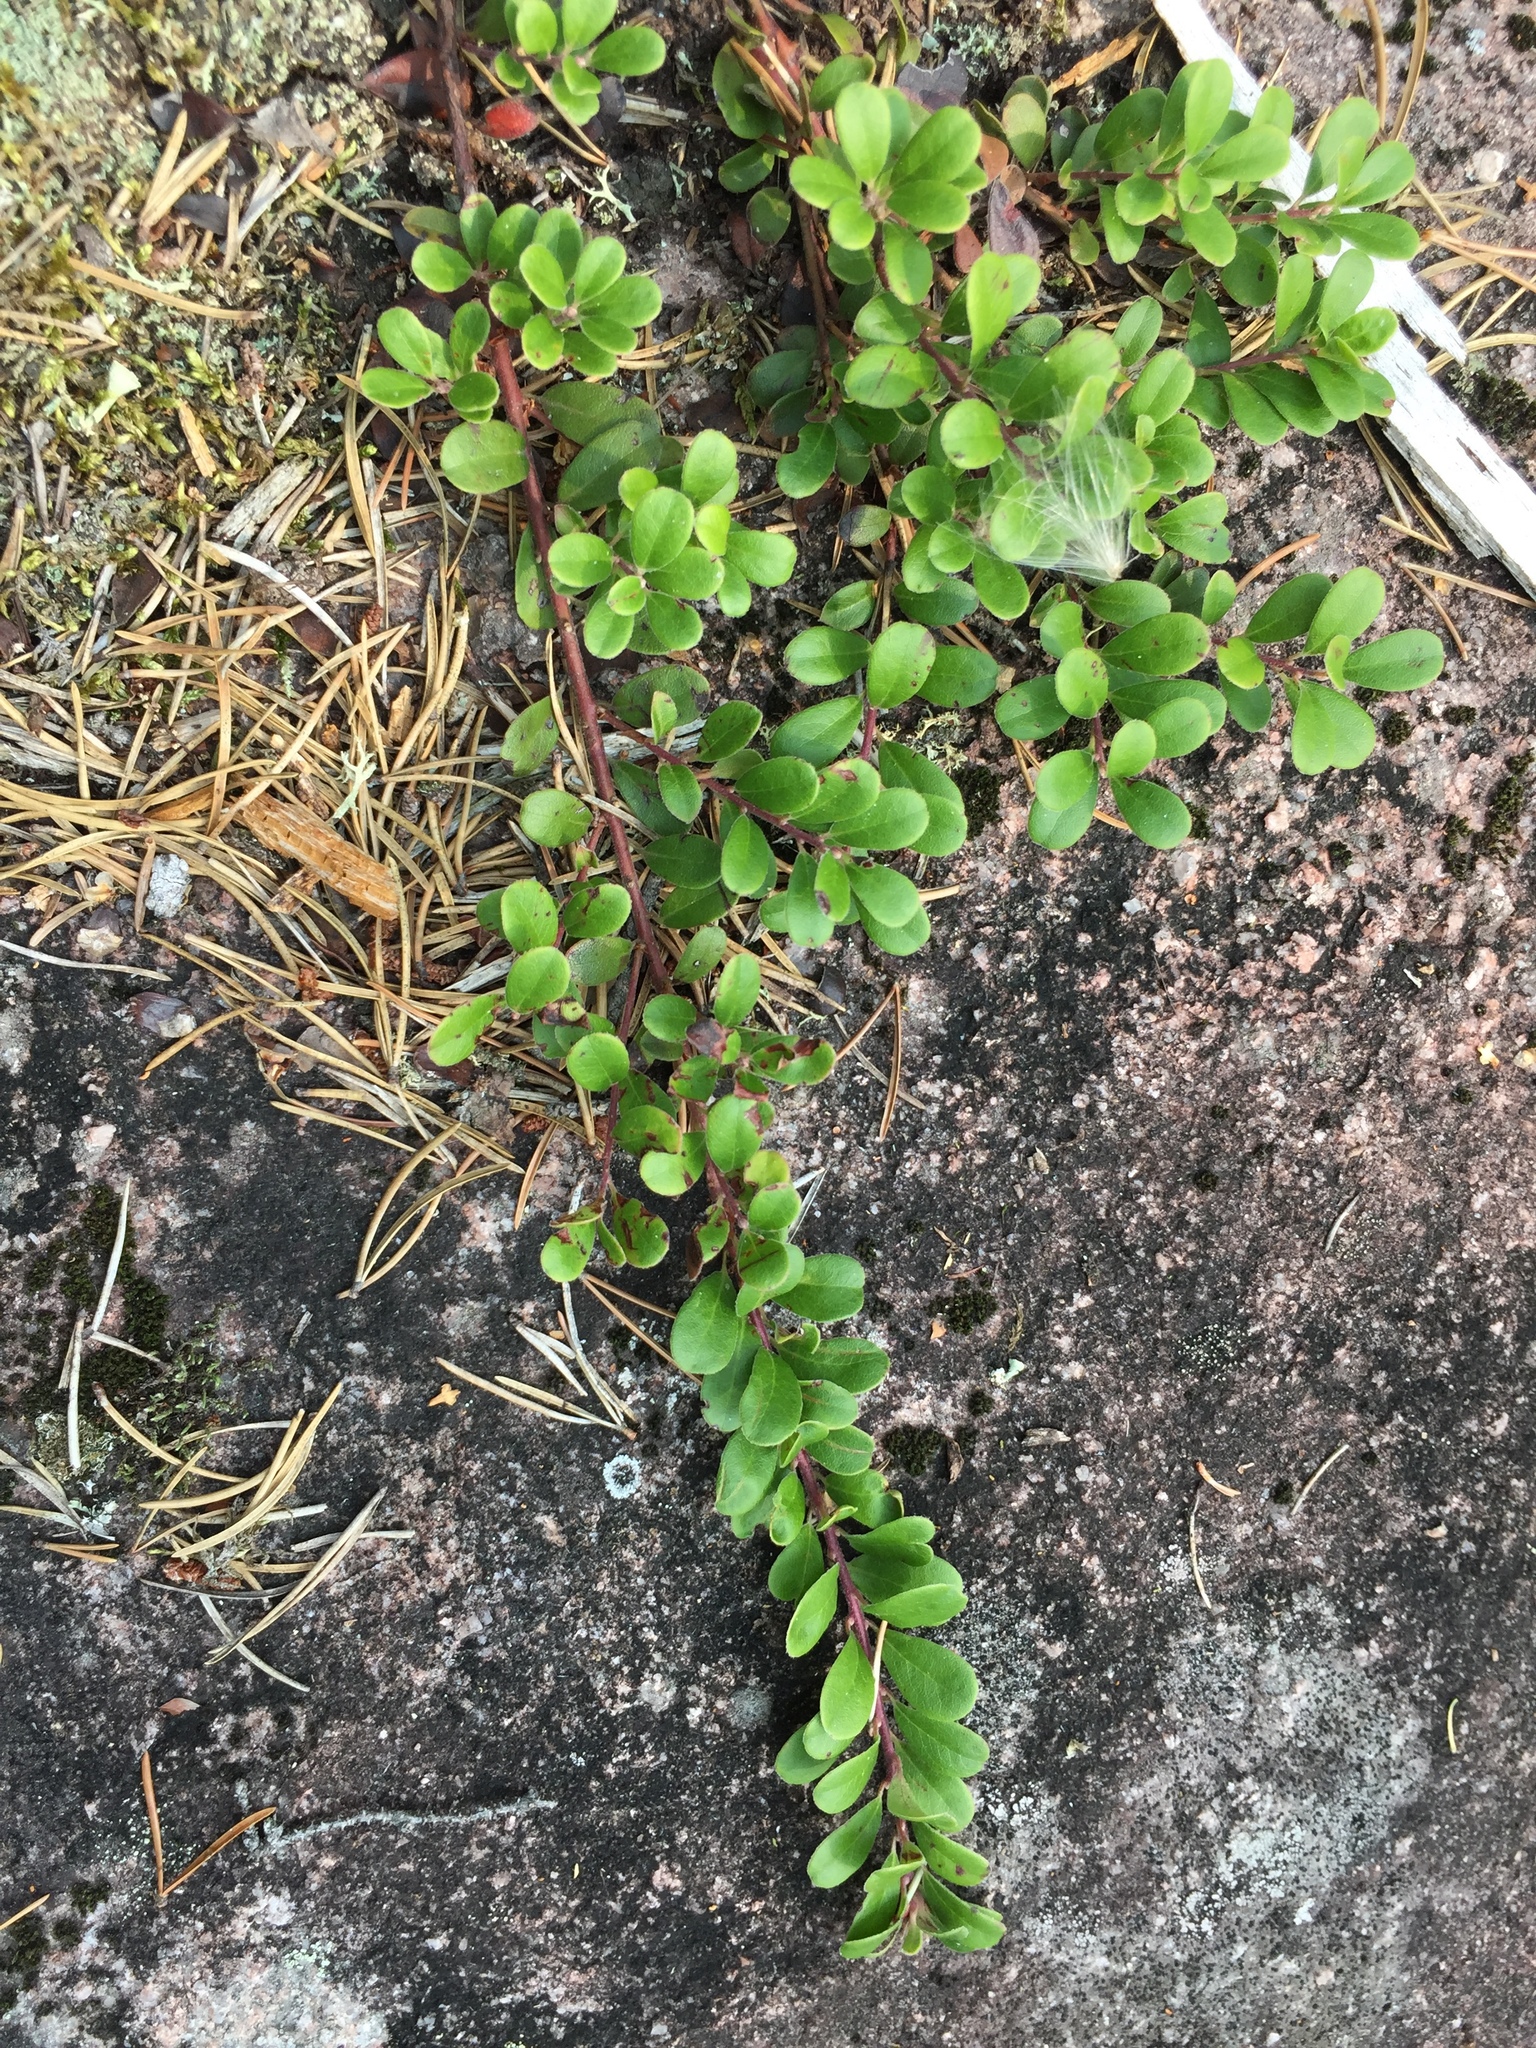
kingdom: Plantae
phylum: Tracheophyta
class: Magnoliopsida
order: Ericales
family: Ericaceae
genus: Arctostaphylos
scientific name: Arctostaphylos uva-ursi
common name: Bearberry
